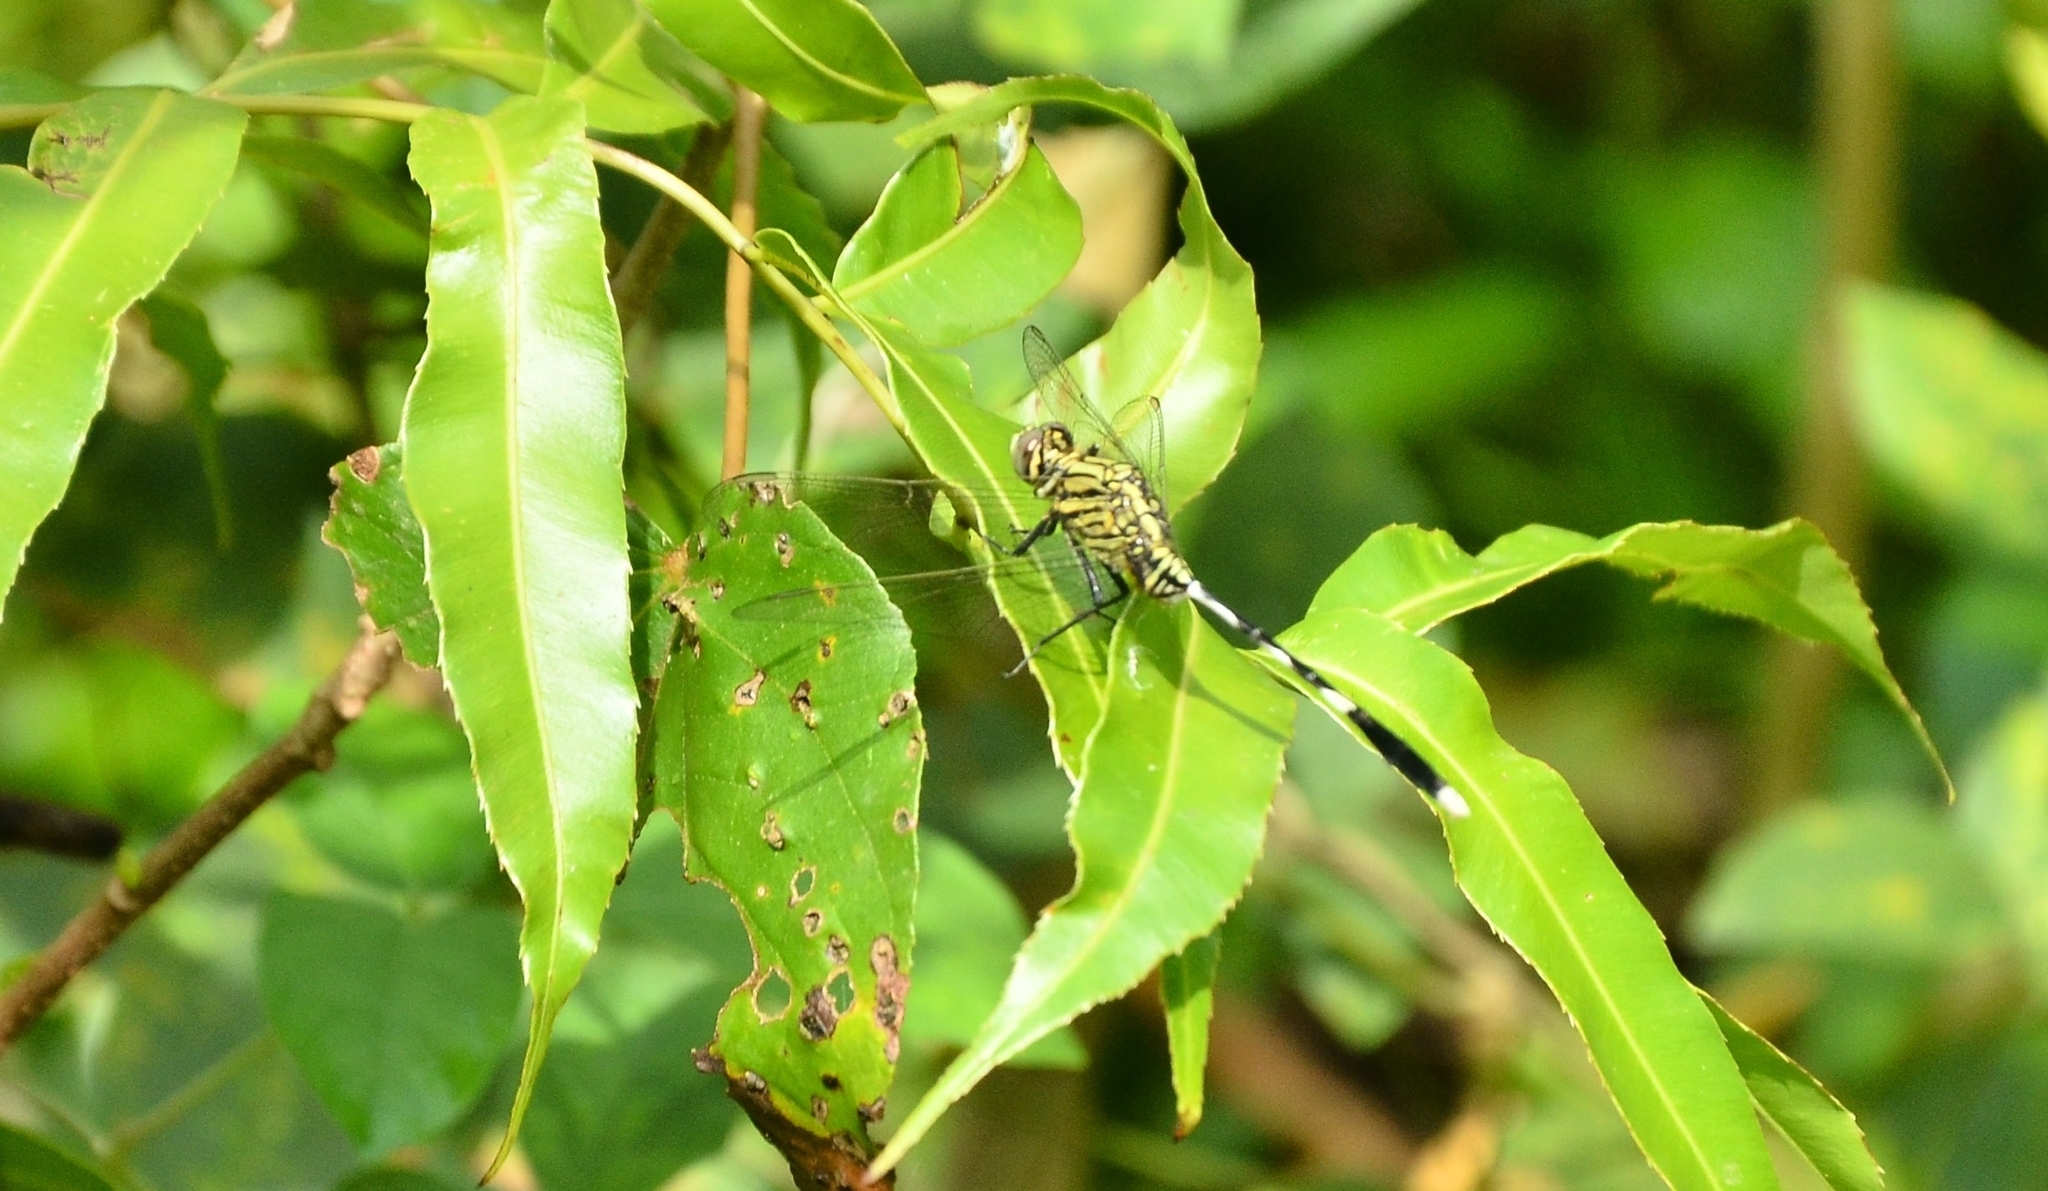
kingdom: Animalia
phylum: Arthropoda
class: Insecta
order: Odonata
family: Libellulidae
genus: Orthetrum
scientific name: Orthetrum sabina
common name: Slender skimmer
